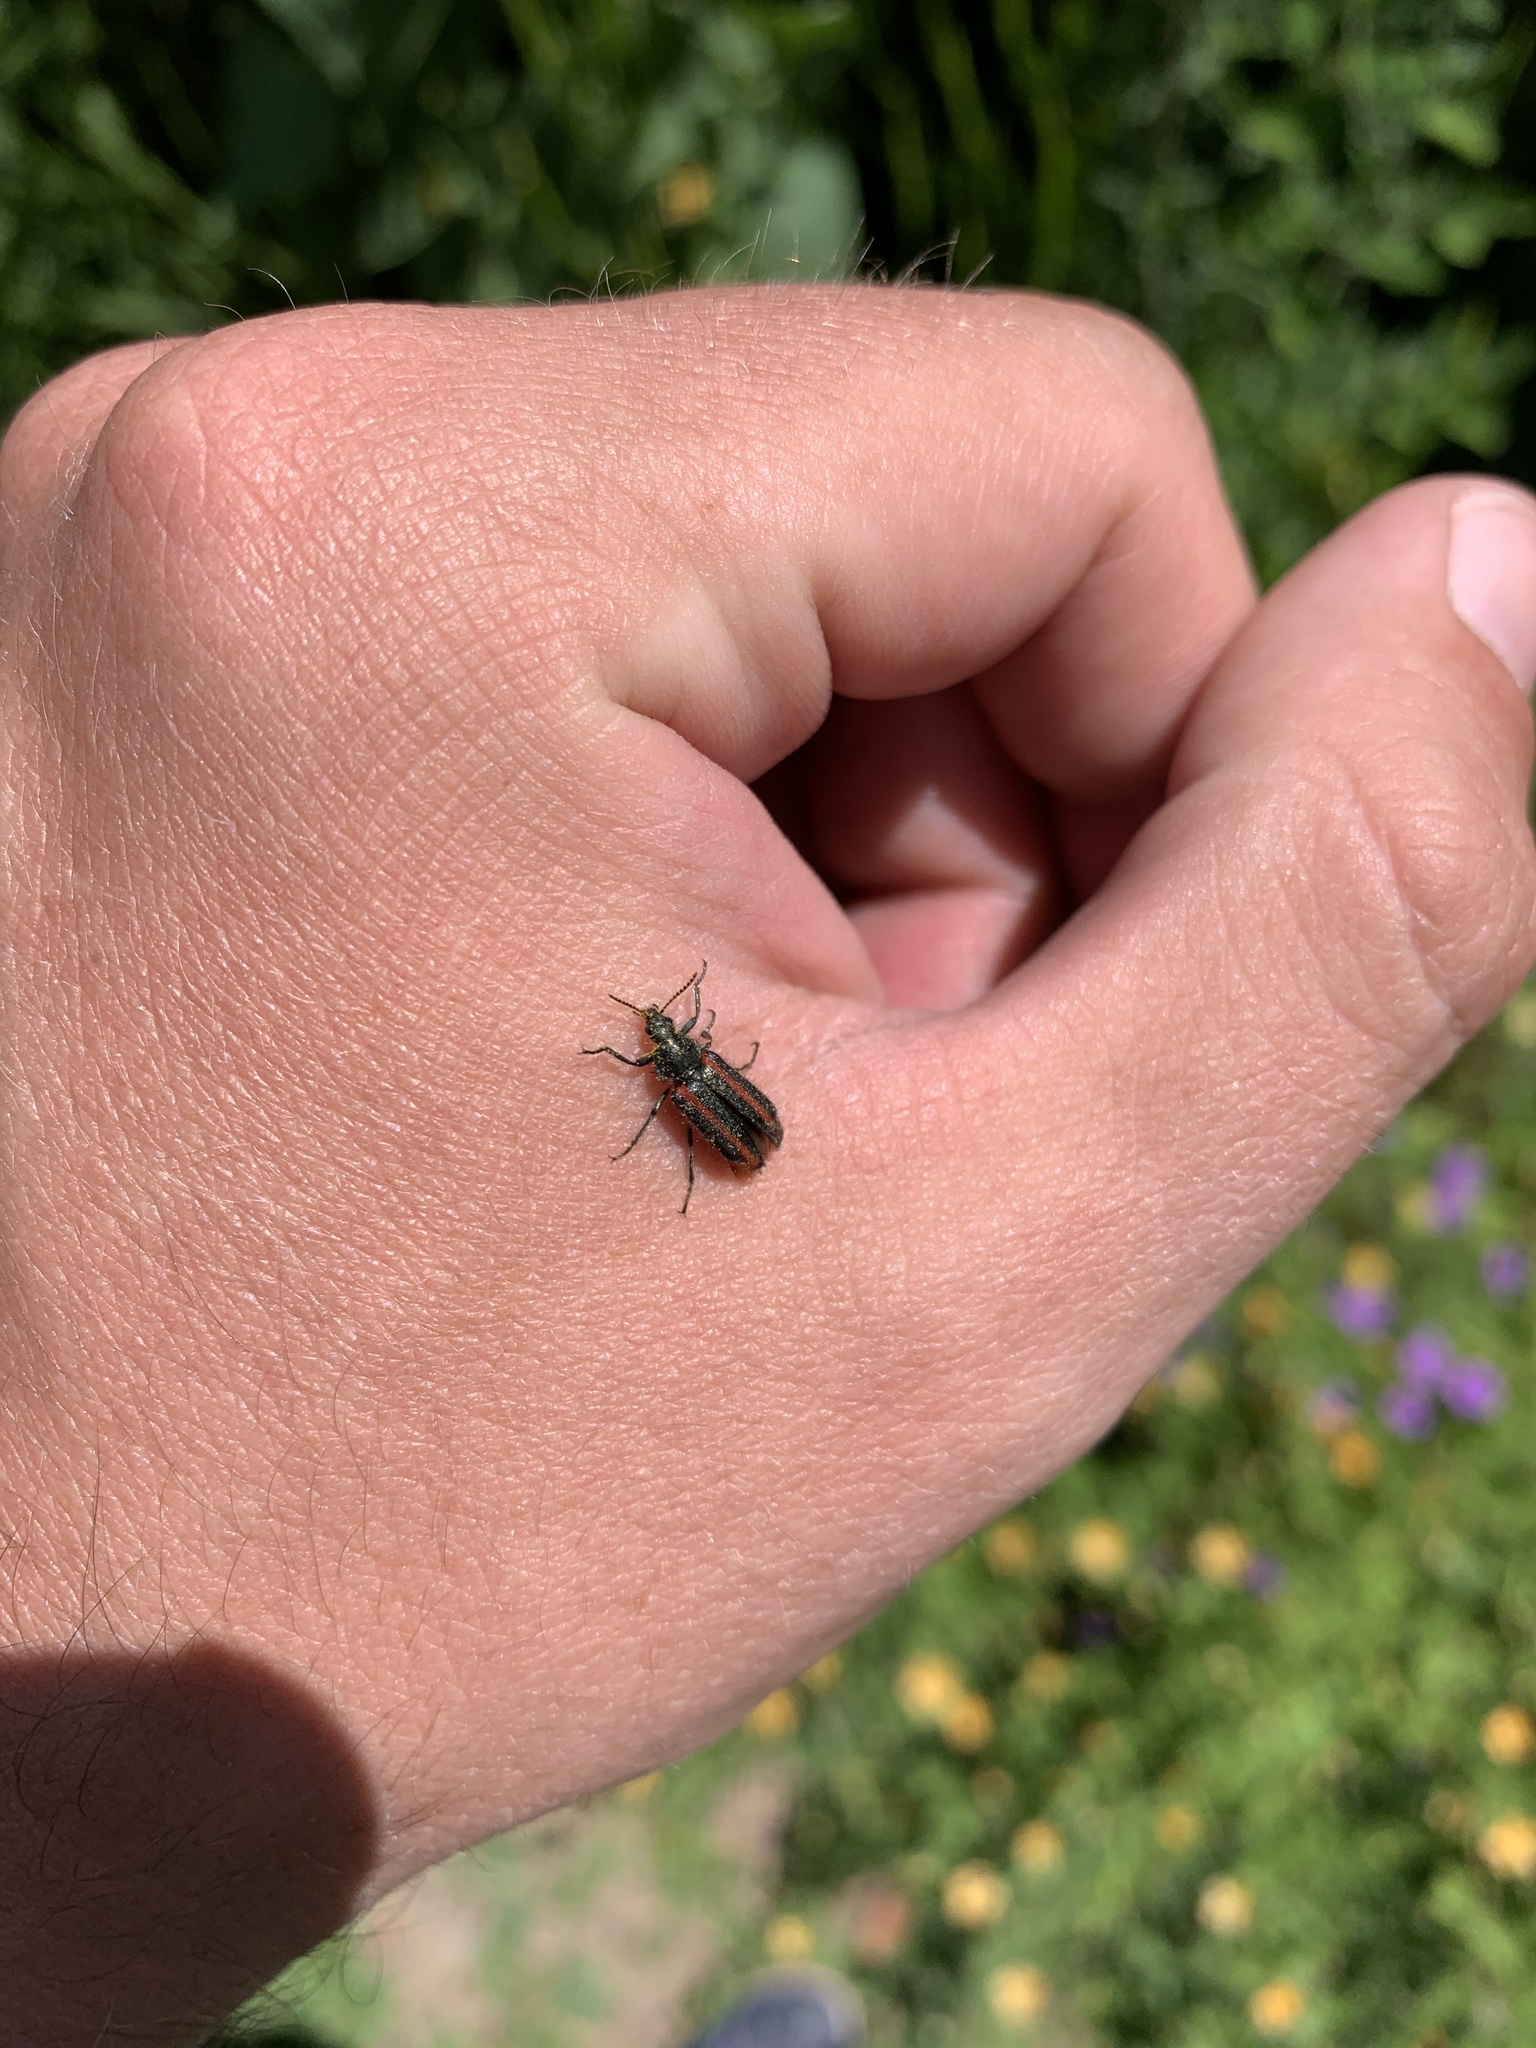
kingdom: Animalia
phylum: Arthropoda
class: Insecta
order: Coleoptera
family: Melyridae
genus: Astylus
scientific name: Astylus
